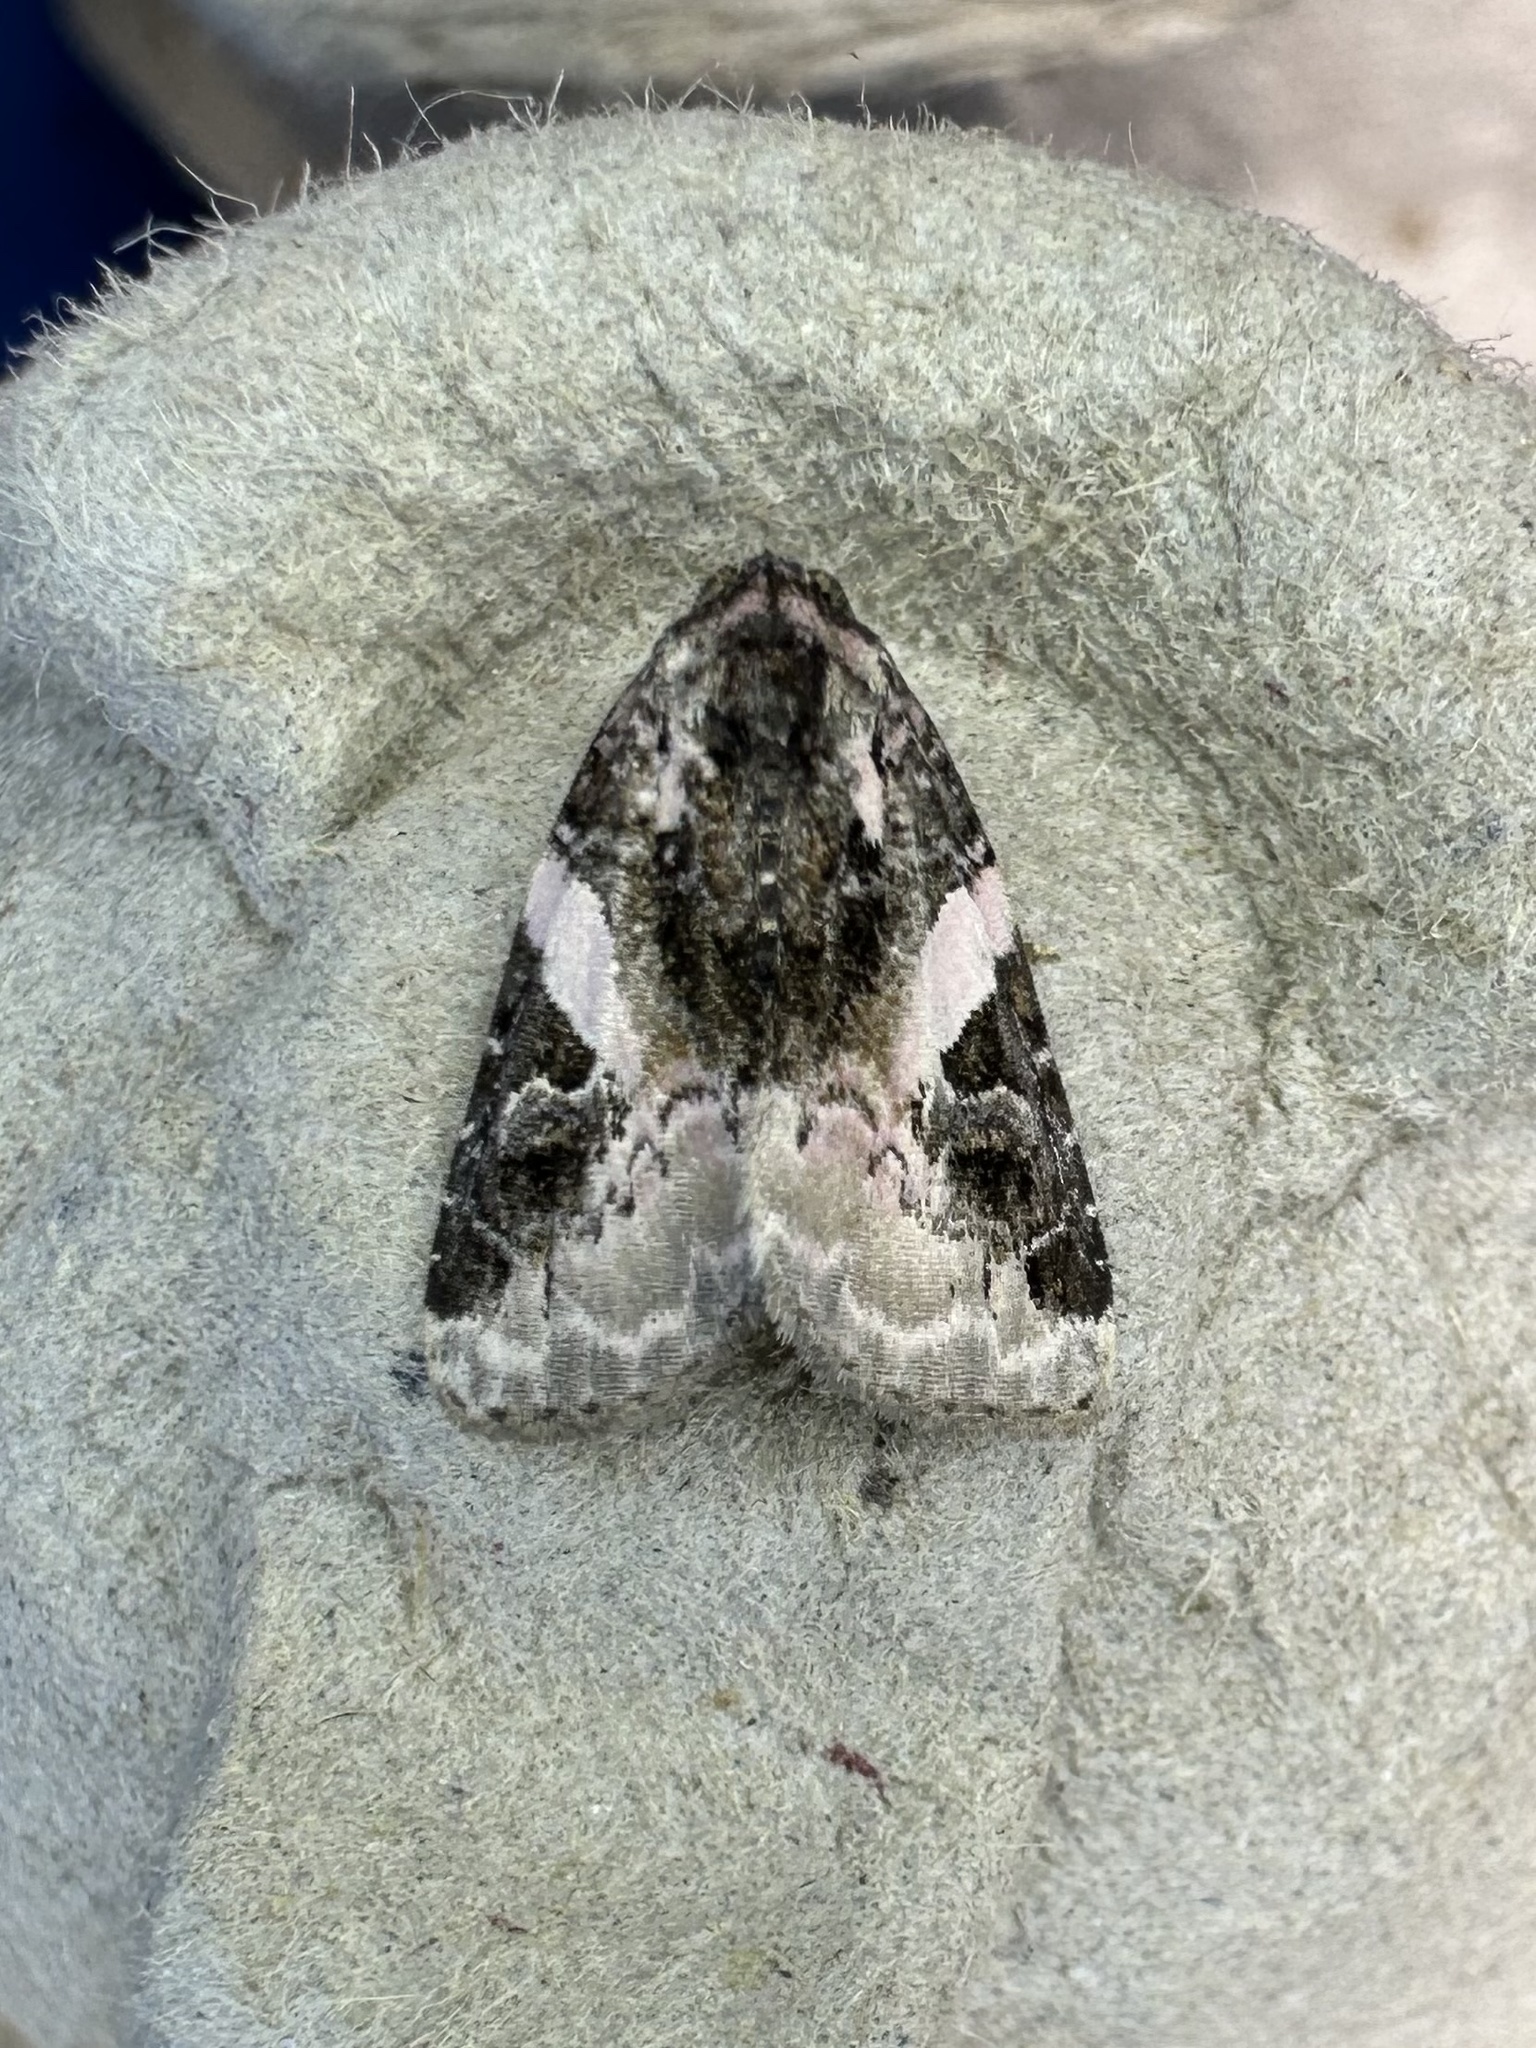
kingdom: Animalia
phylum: Arthropoda
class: Insecta
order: Lepidoptera
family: Noctuidae
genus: Pseudeustrotia
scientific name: Pseudeustrotia carneola
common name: Pink-barred lithacodia moth
